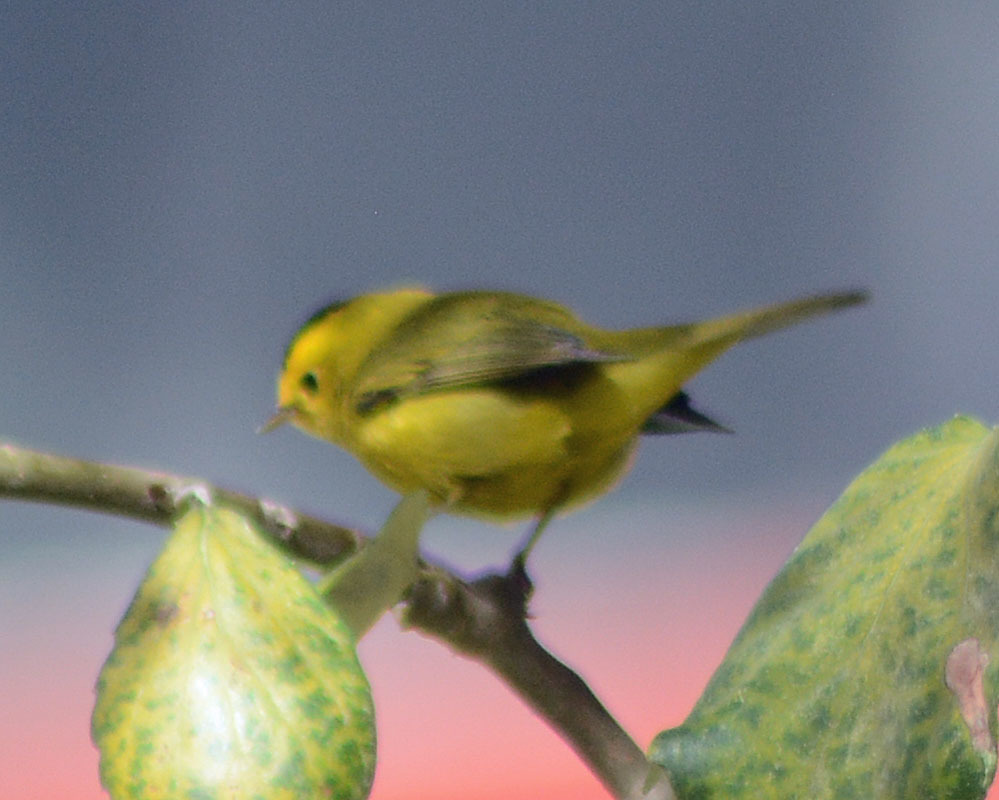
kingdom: Animalia
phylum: Chordata
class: Aves
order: Passeriformes
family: Parulidae
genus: Cardellina
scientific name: Cardellina pusilla
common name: Wilson's warbler
